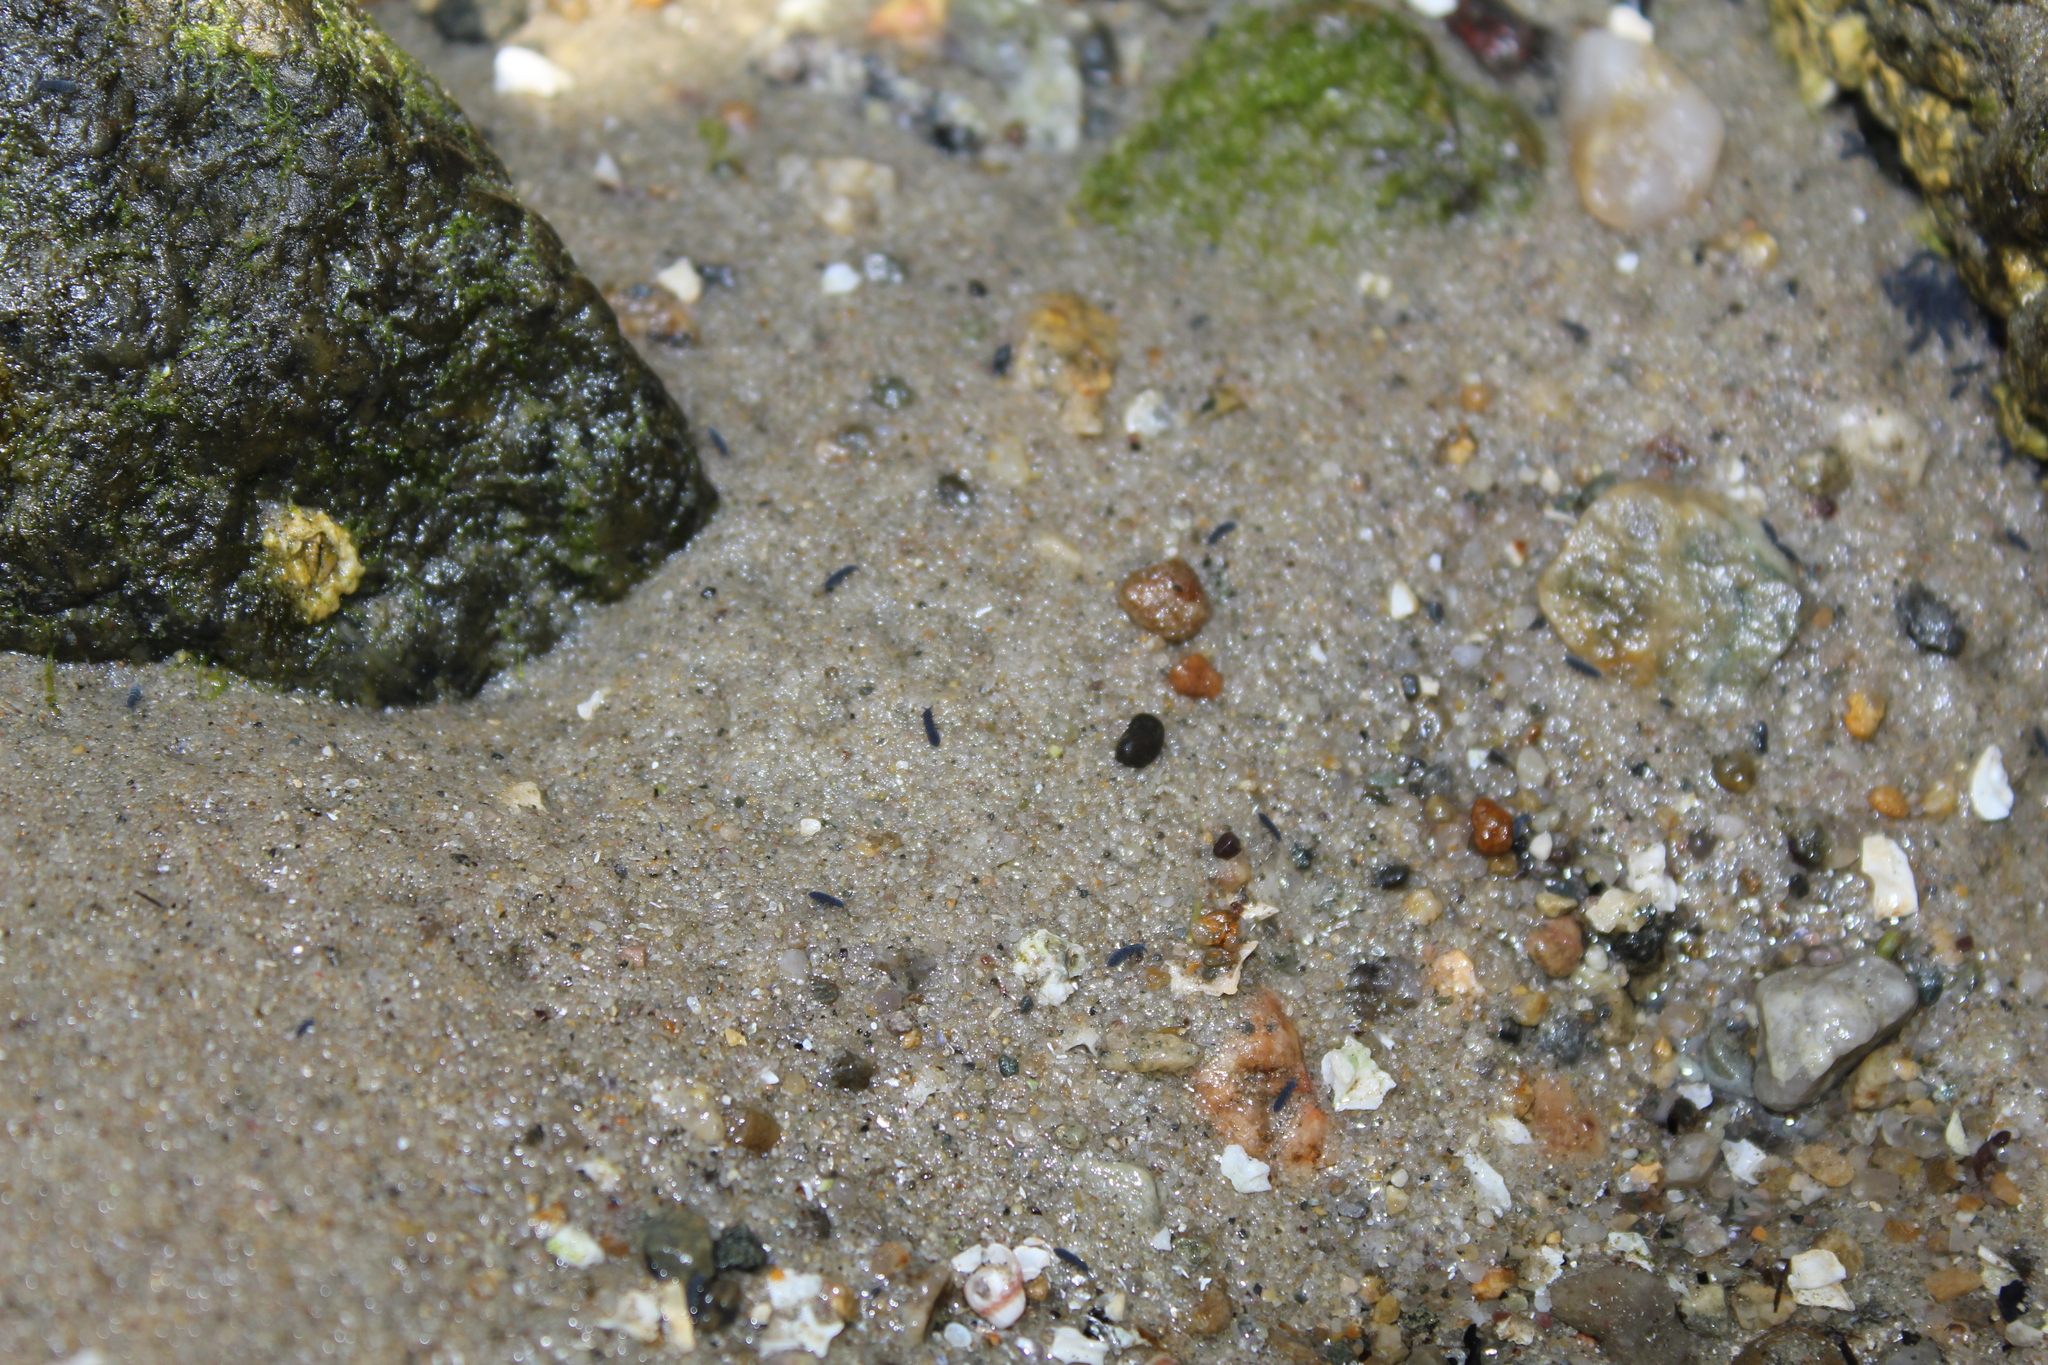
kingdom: Animalia
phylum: Arthropoda
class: Collembola
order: Poduromorpha
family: Neanuridae
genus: Anurida
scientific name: Anurida maritima
